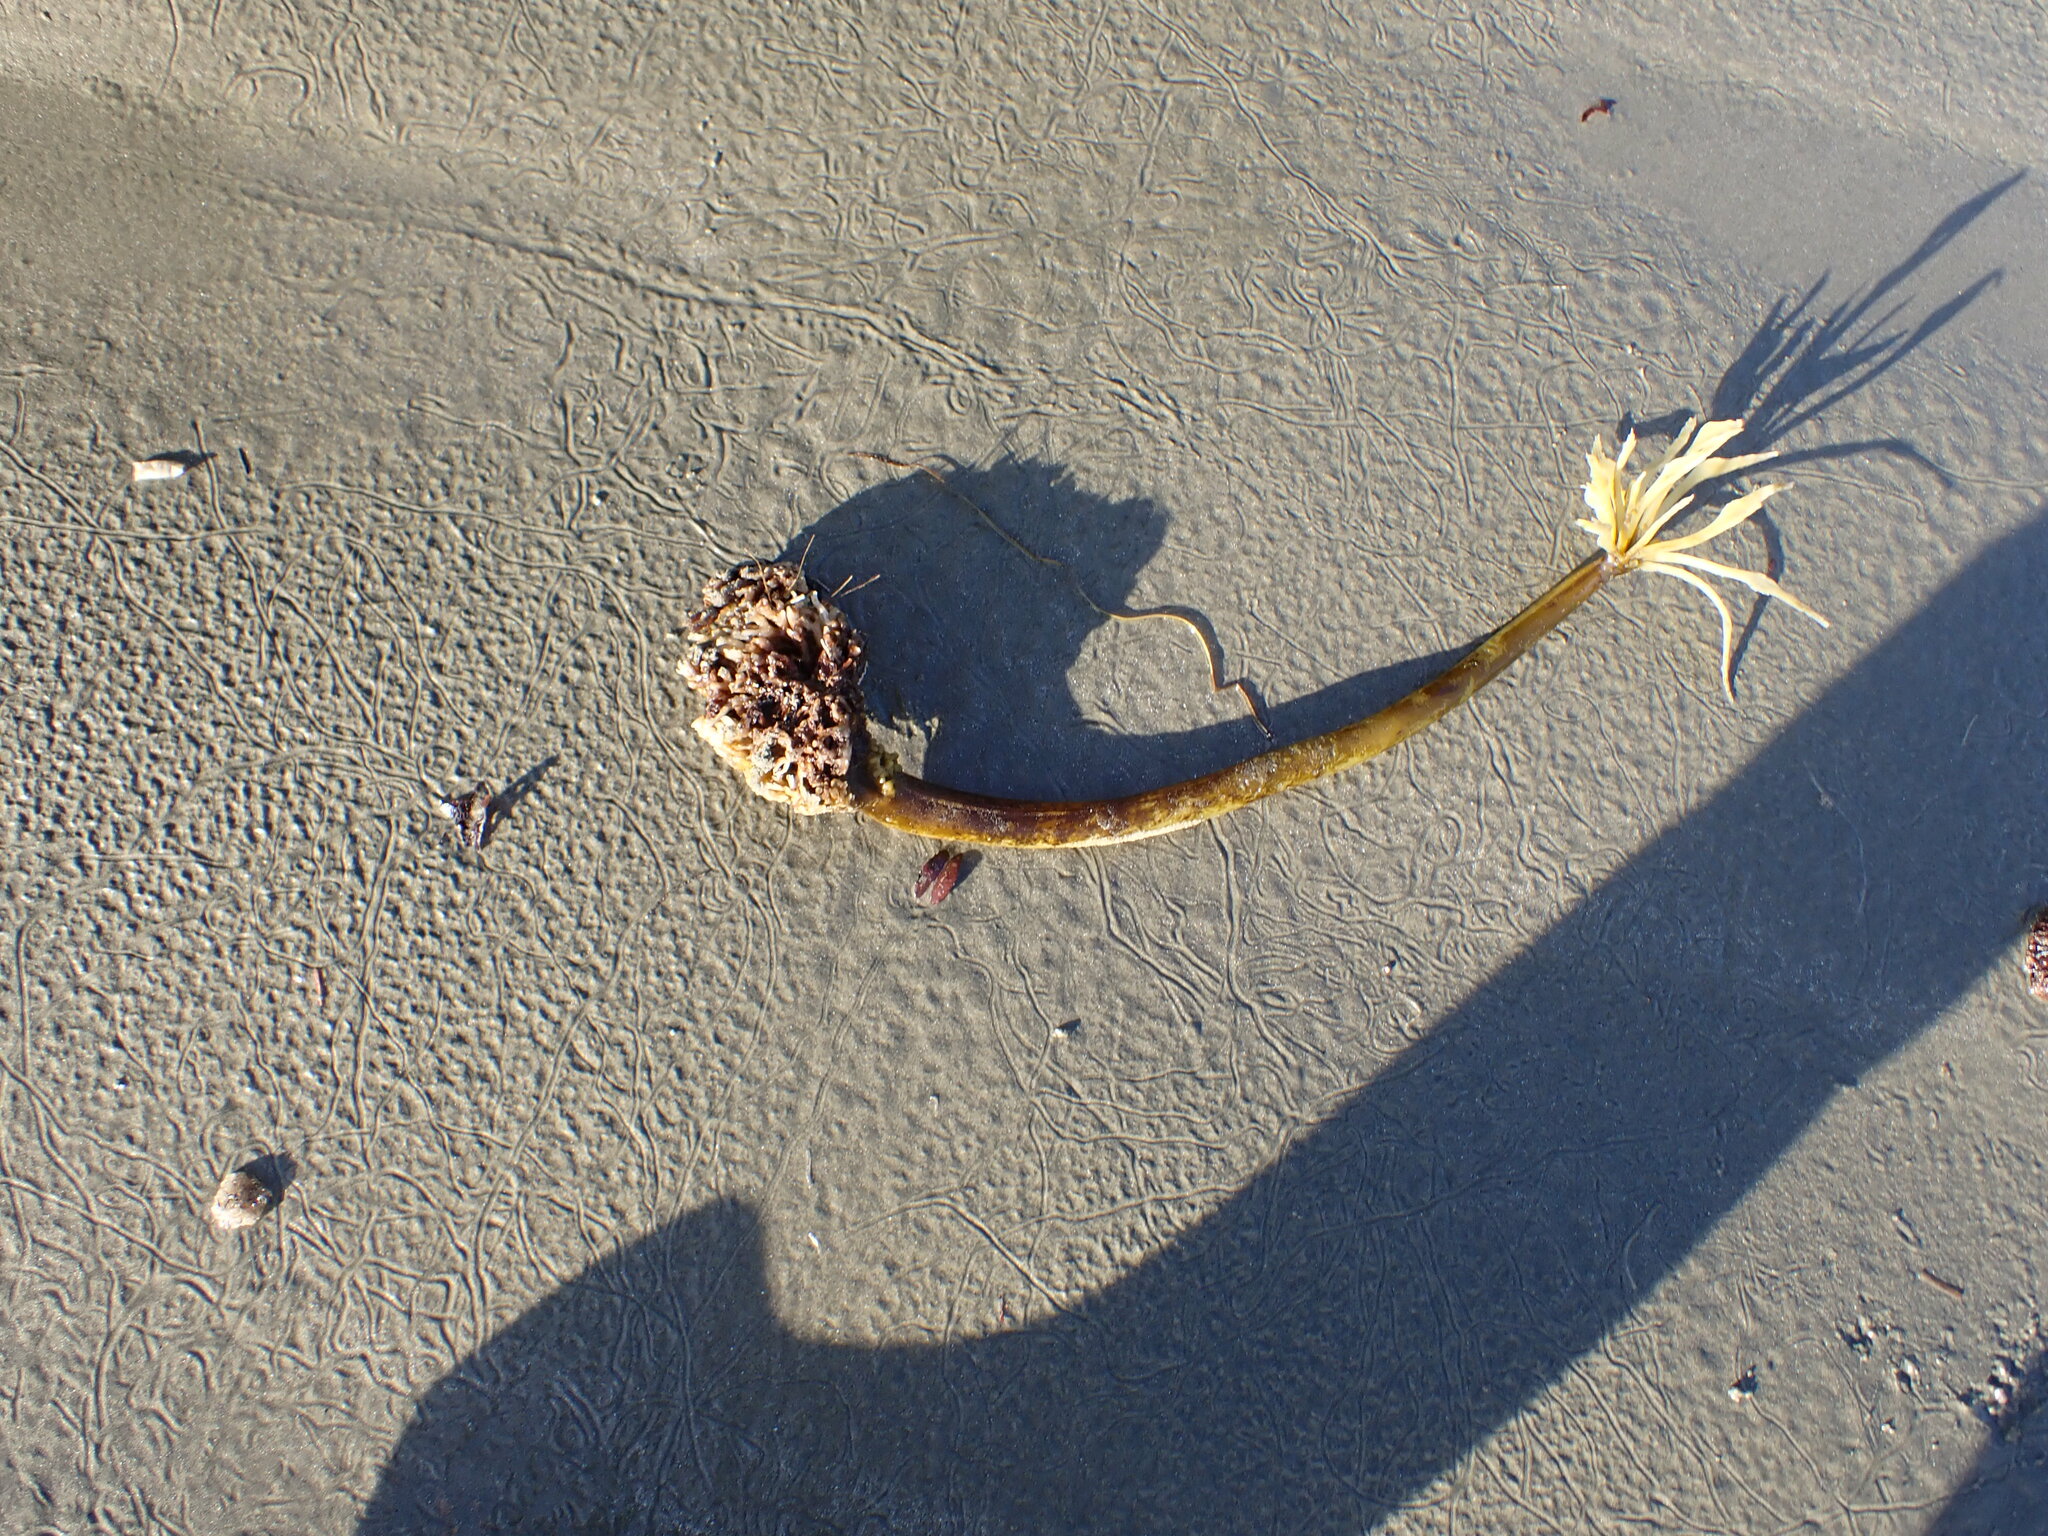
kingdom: Chromista
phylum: Ochrophyta
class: Phaeophyceae
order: Laminariales
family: Laminariaceae
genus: Postelsia
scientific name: Postelsia palmiformis
